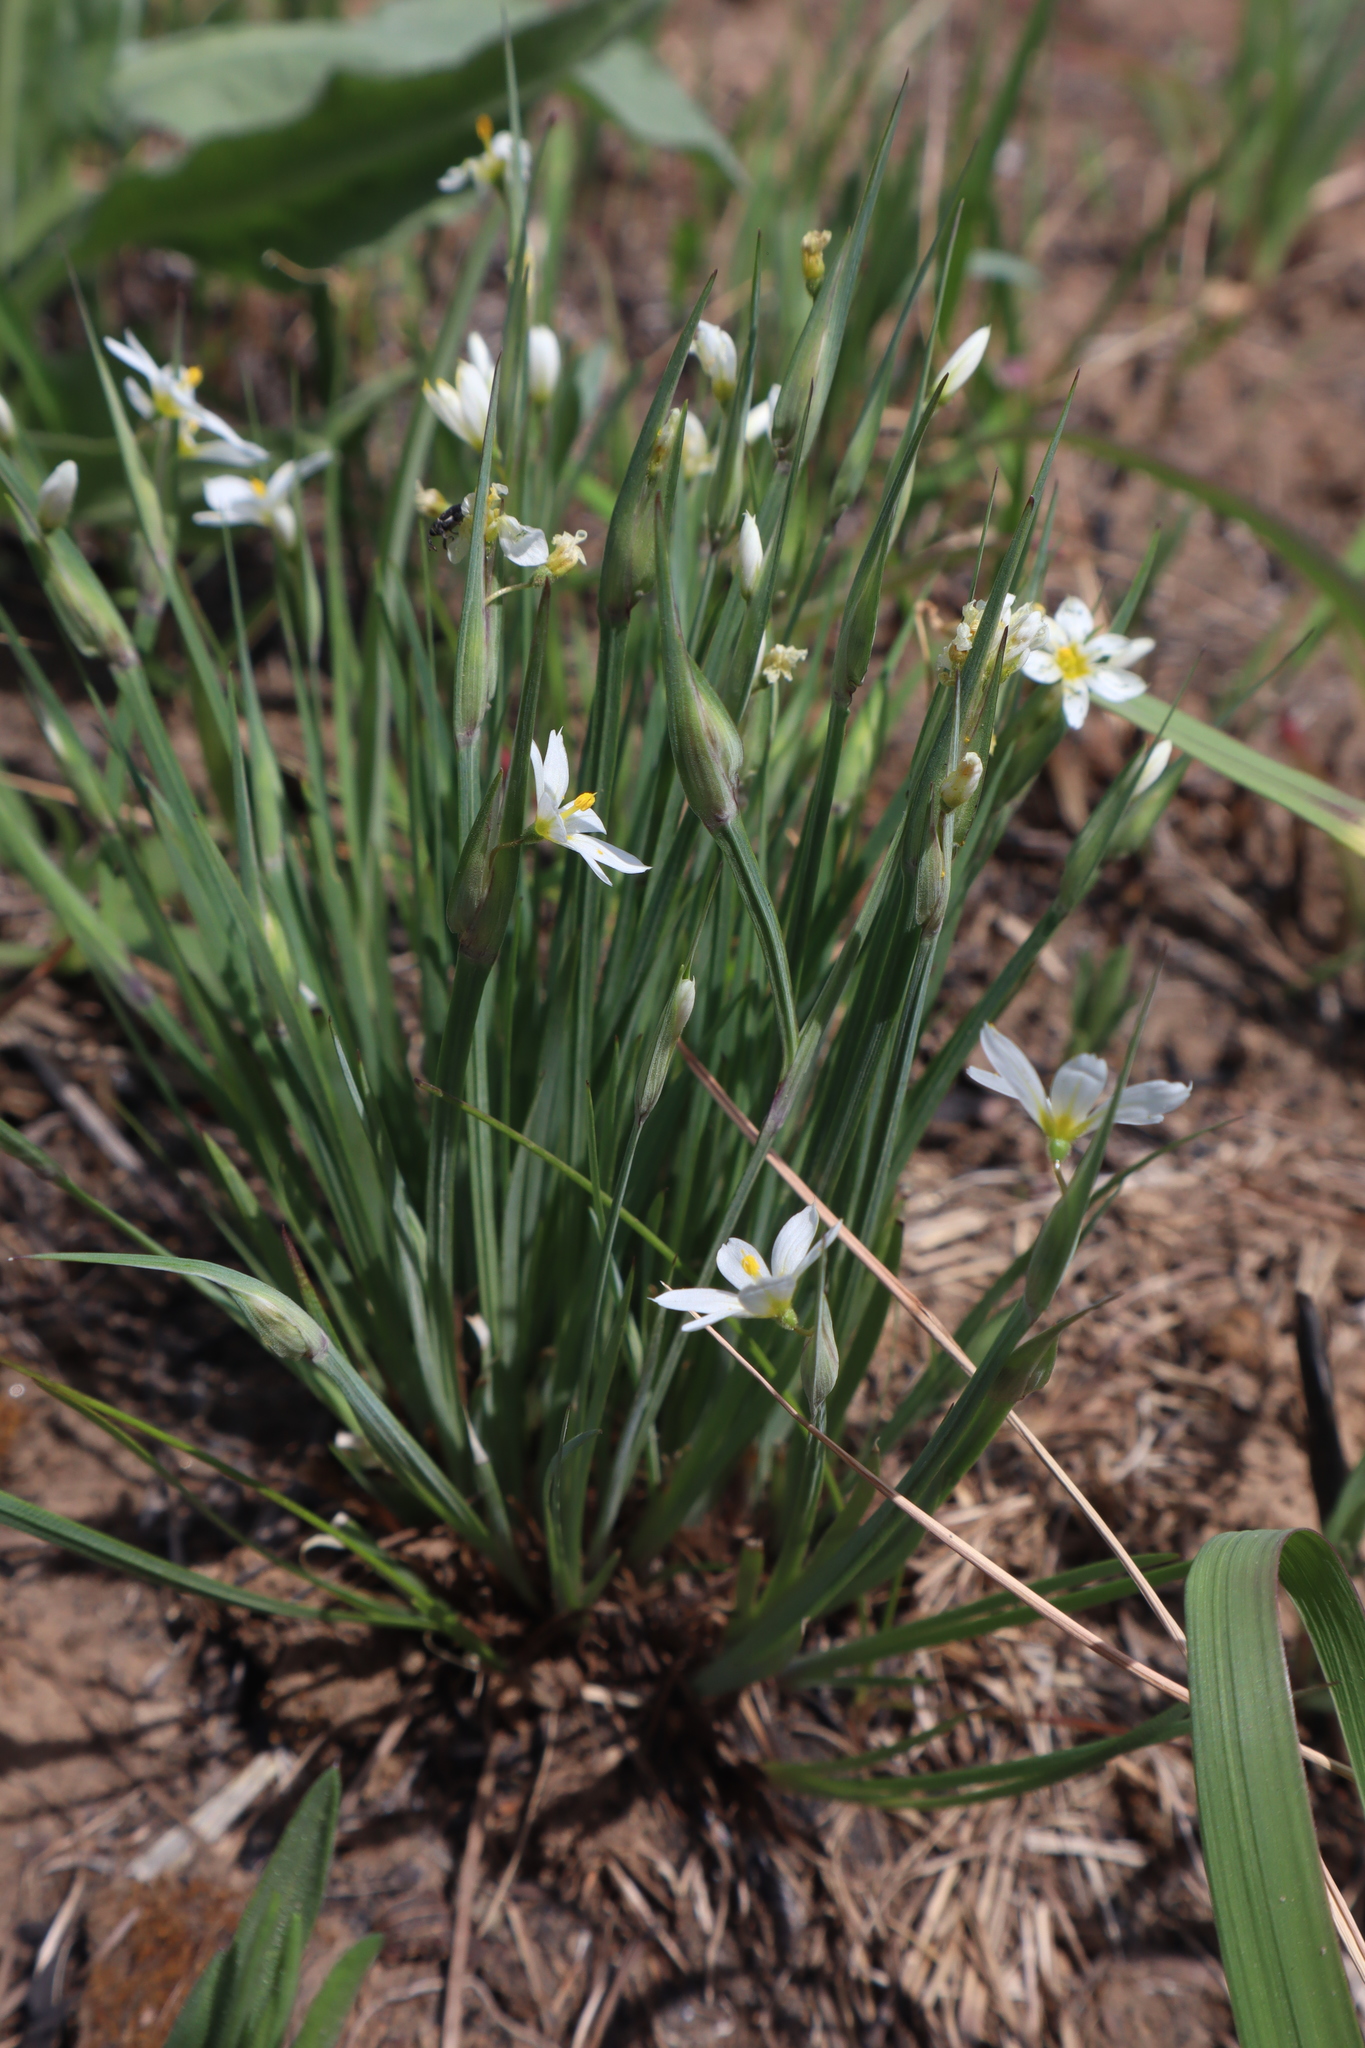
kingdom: Plantae
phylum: Tracheophyta
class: Liliopsida
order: Asparagales
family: Iridaceae
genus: Sisyrinchium
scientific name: Sisyrinchium campestre
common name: Prairie blue-eyed-grass
